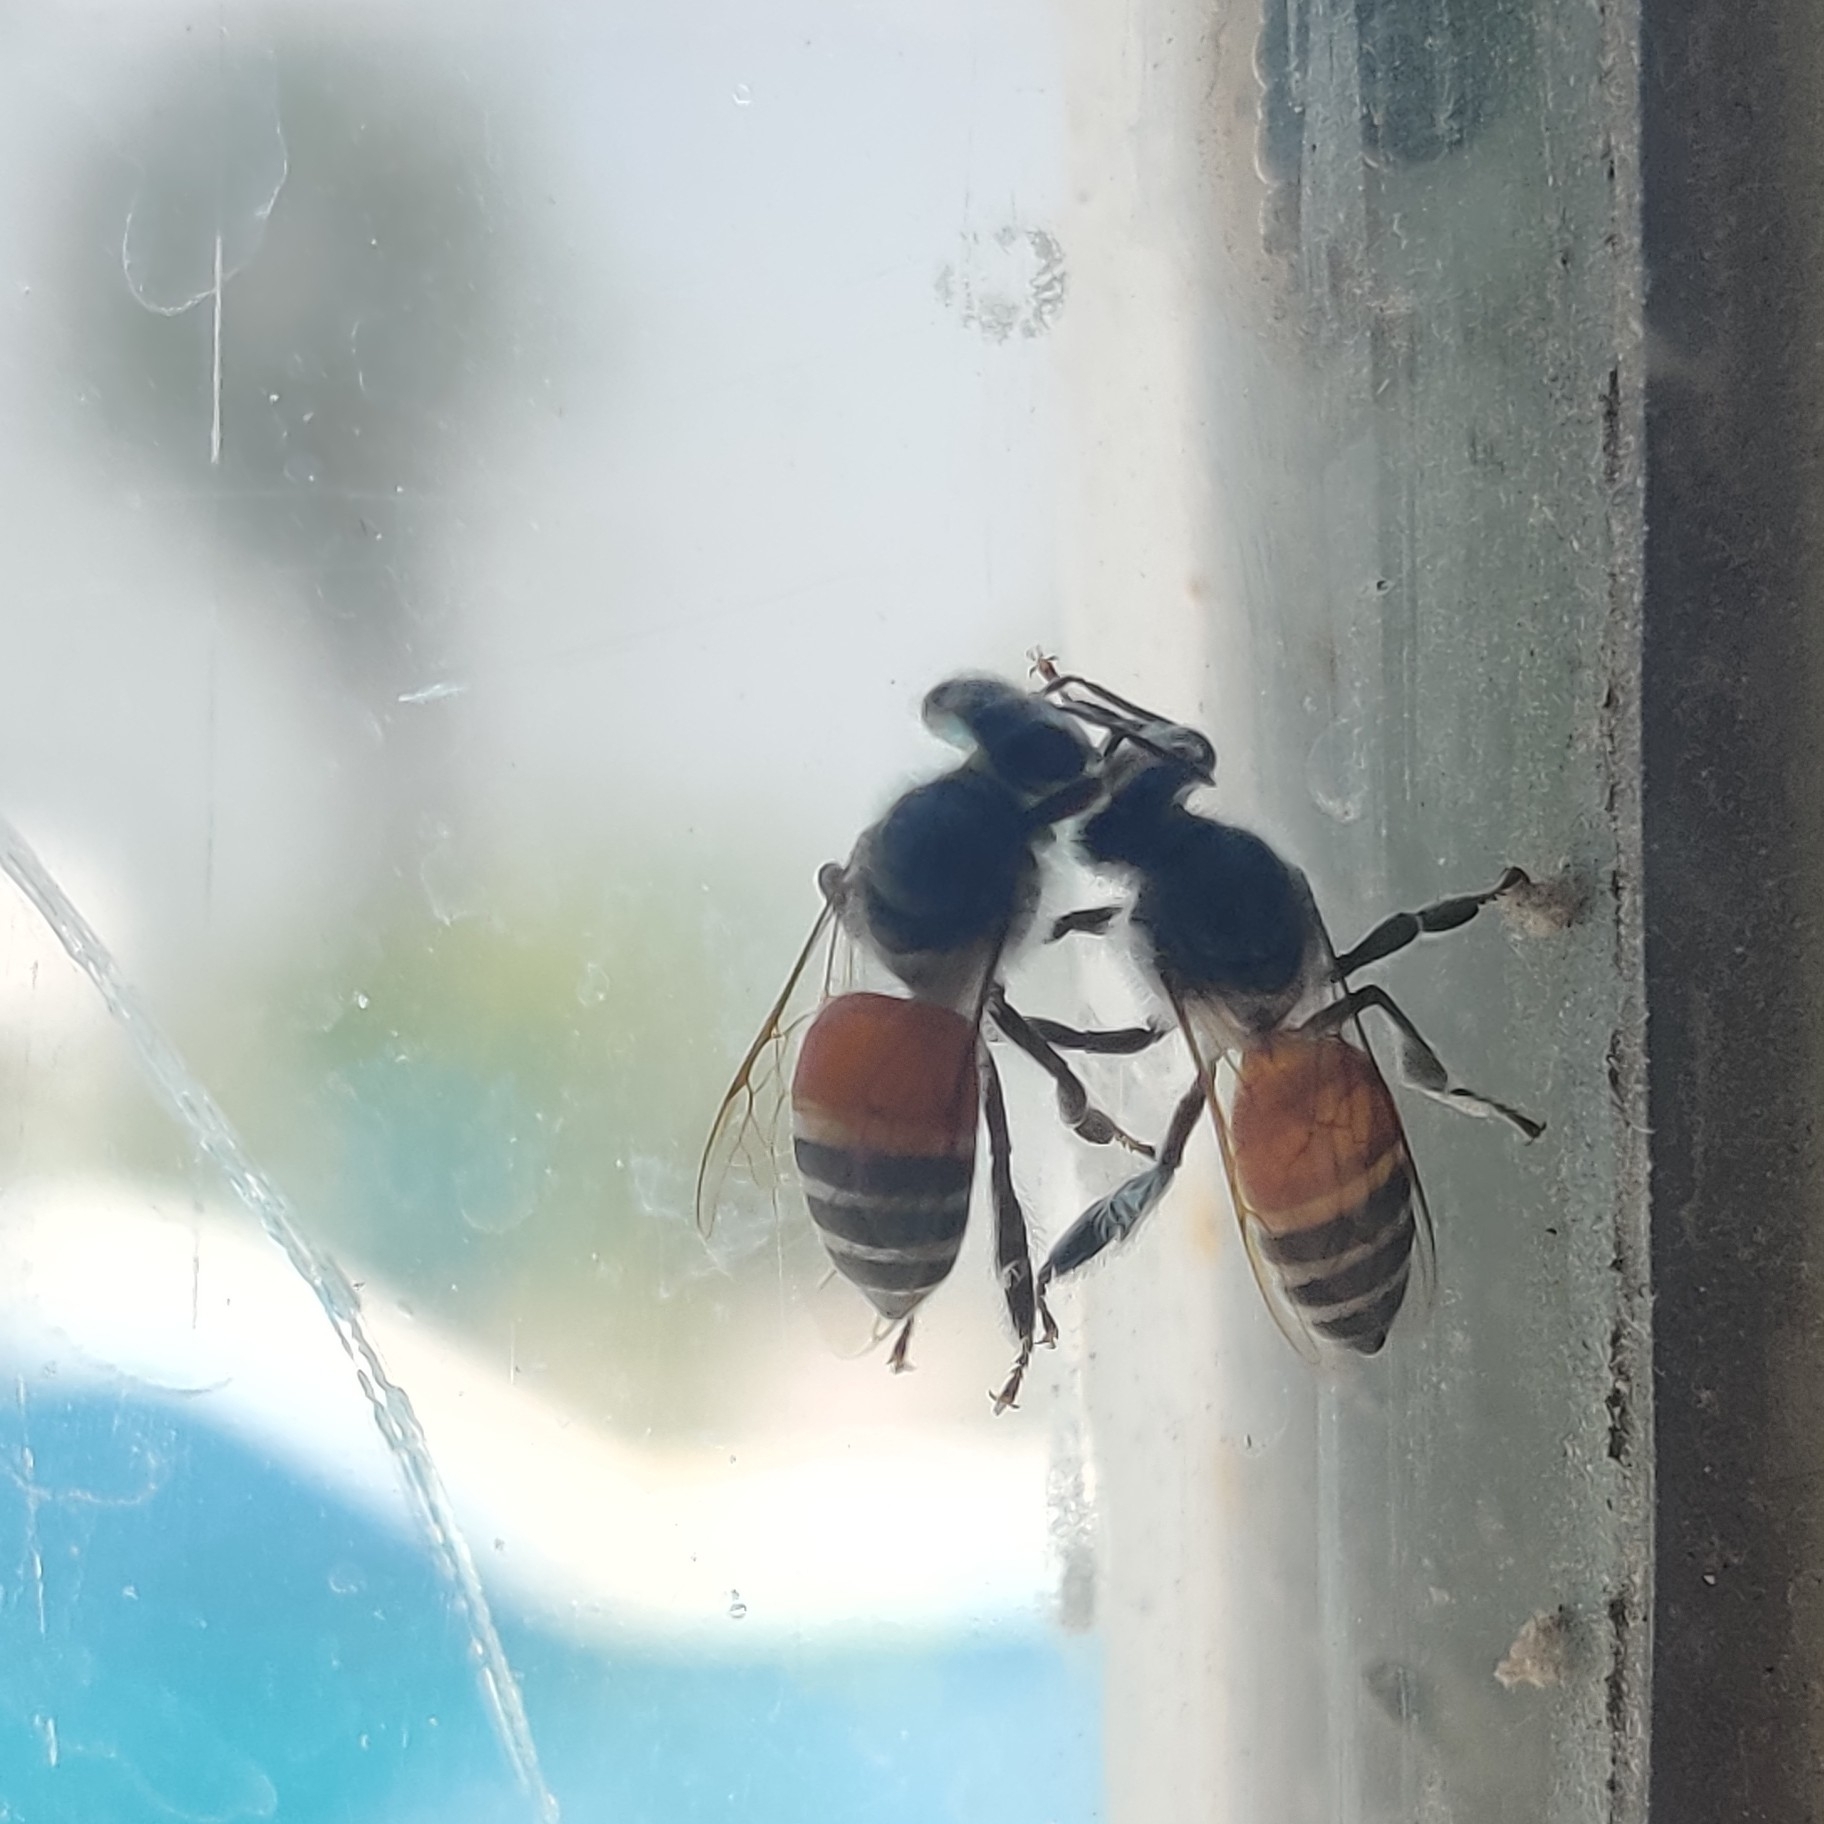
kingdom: Animalia
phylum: Arthropoda
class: Insecta
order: Hymenoptera
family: Apidae
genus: Apis
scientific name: Apis florea
